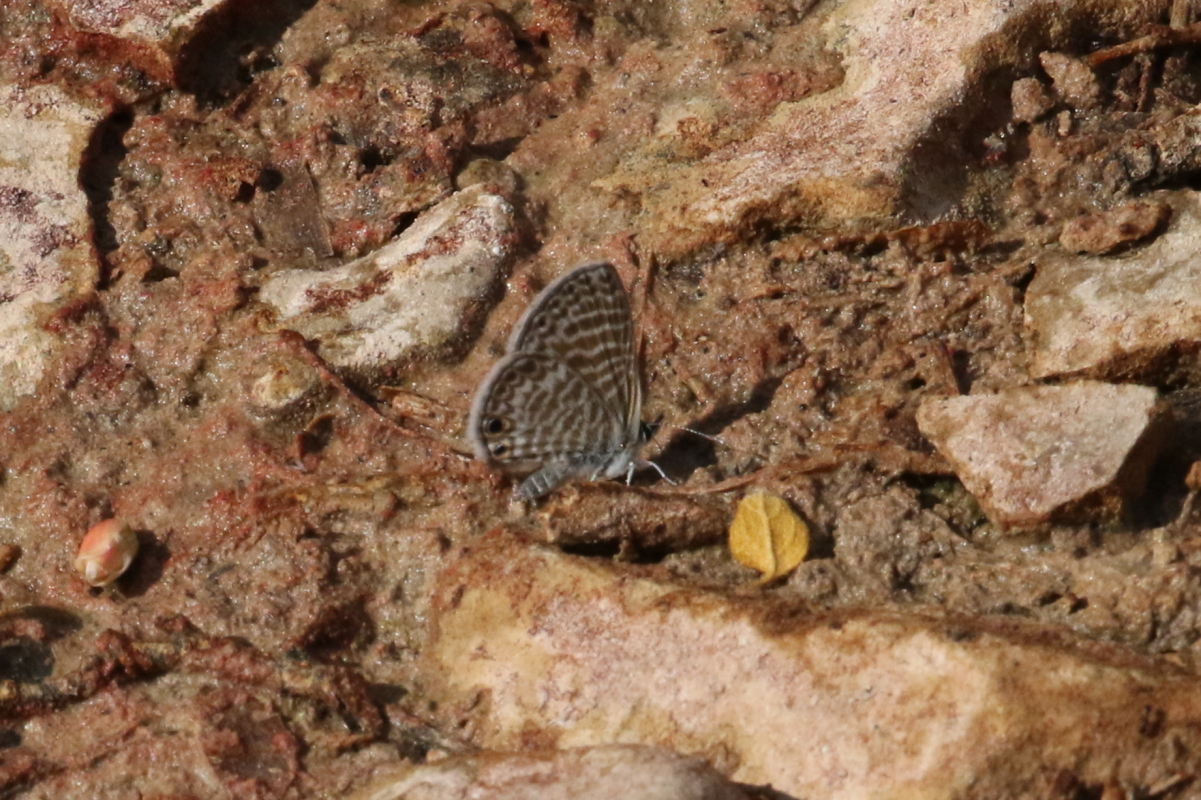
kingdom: Animalia
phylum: Arthropoda
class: Insecta
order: Lepidoptera
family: Lycaenidae
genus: Leptotes
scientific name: Leptotes marina
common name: Marine blue
